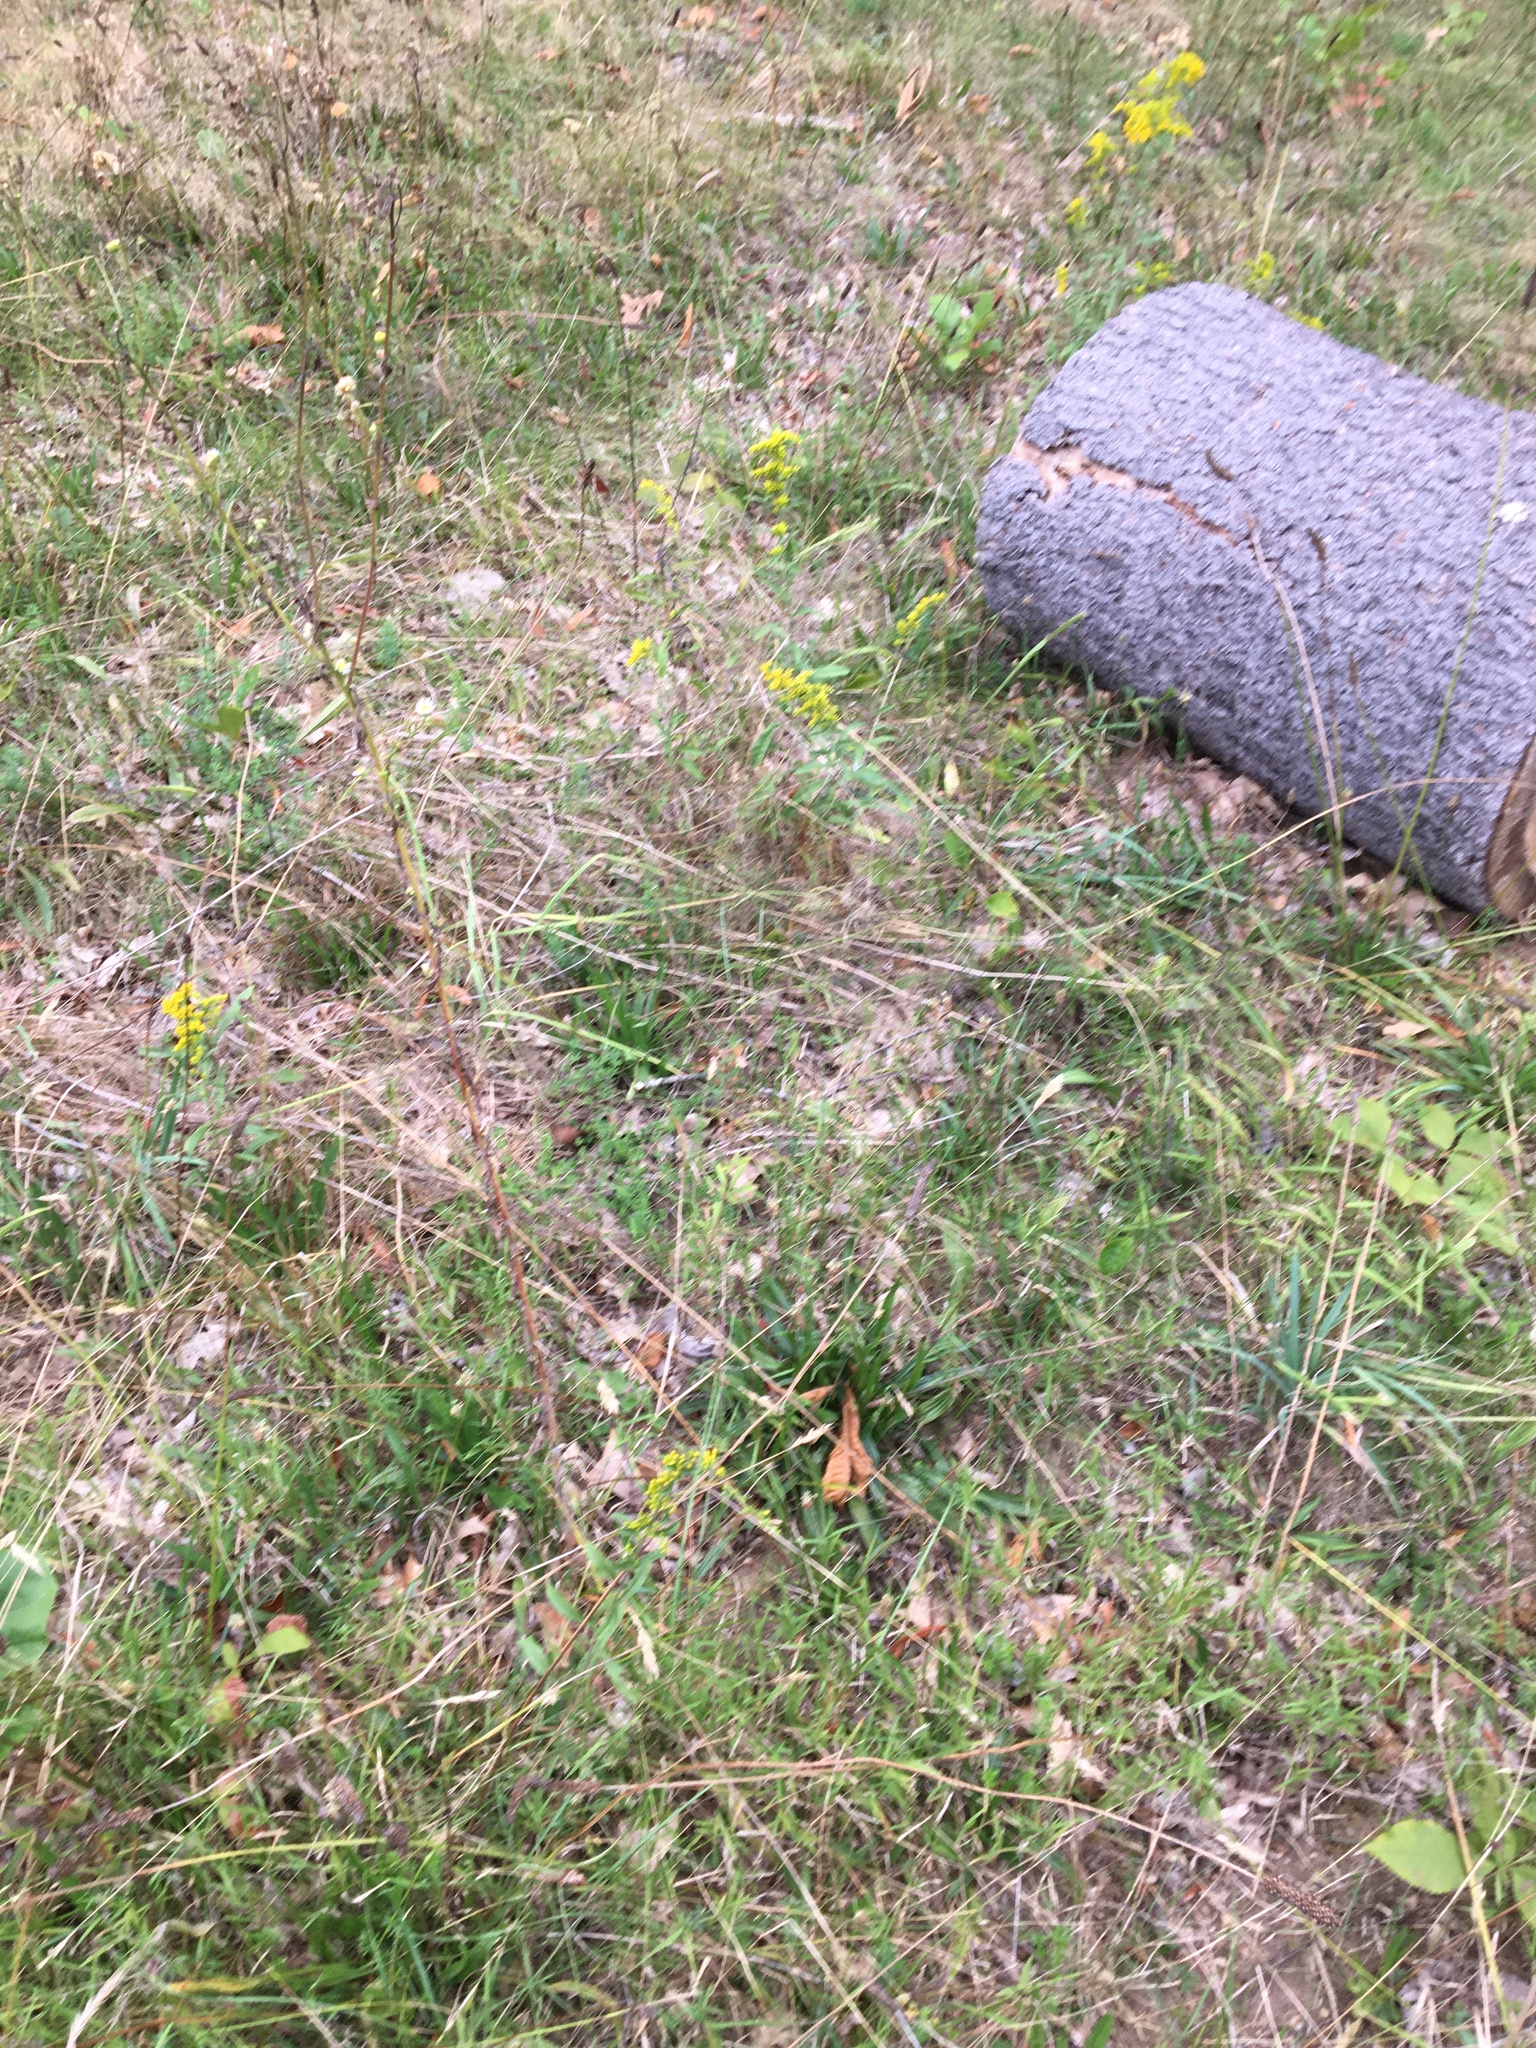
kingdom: Plantae
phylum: Tracheophyta
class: Magnoliopsida
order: Asterales
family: Asteraceae
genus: Solidago
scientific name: Solidago nemoralis
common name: Grey goldenrod
